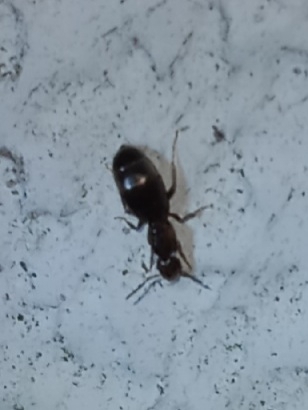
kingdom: Animalia
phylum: Arthropoda
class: Insecta
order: Hymenoptera
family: Formicidae
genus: Brachymyrmex
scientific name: Brachymyrmex patagonicus
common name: Dark rover ant
